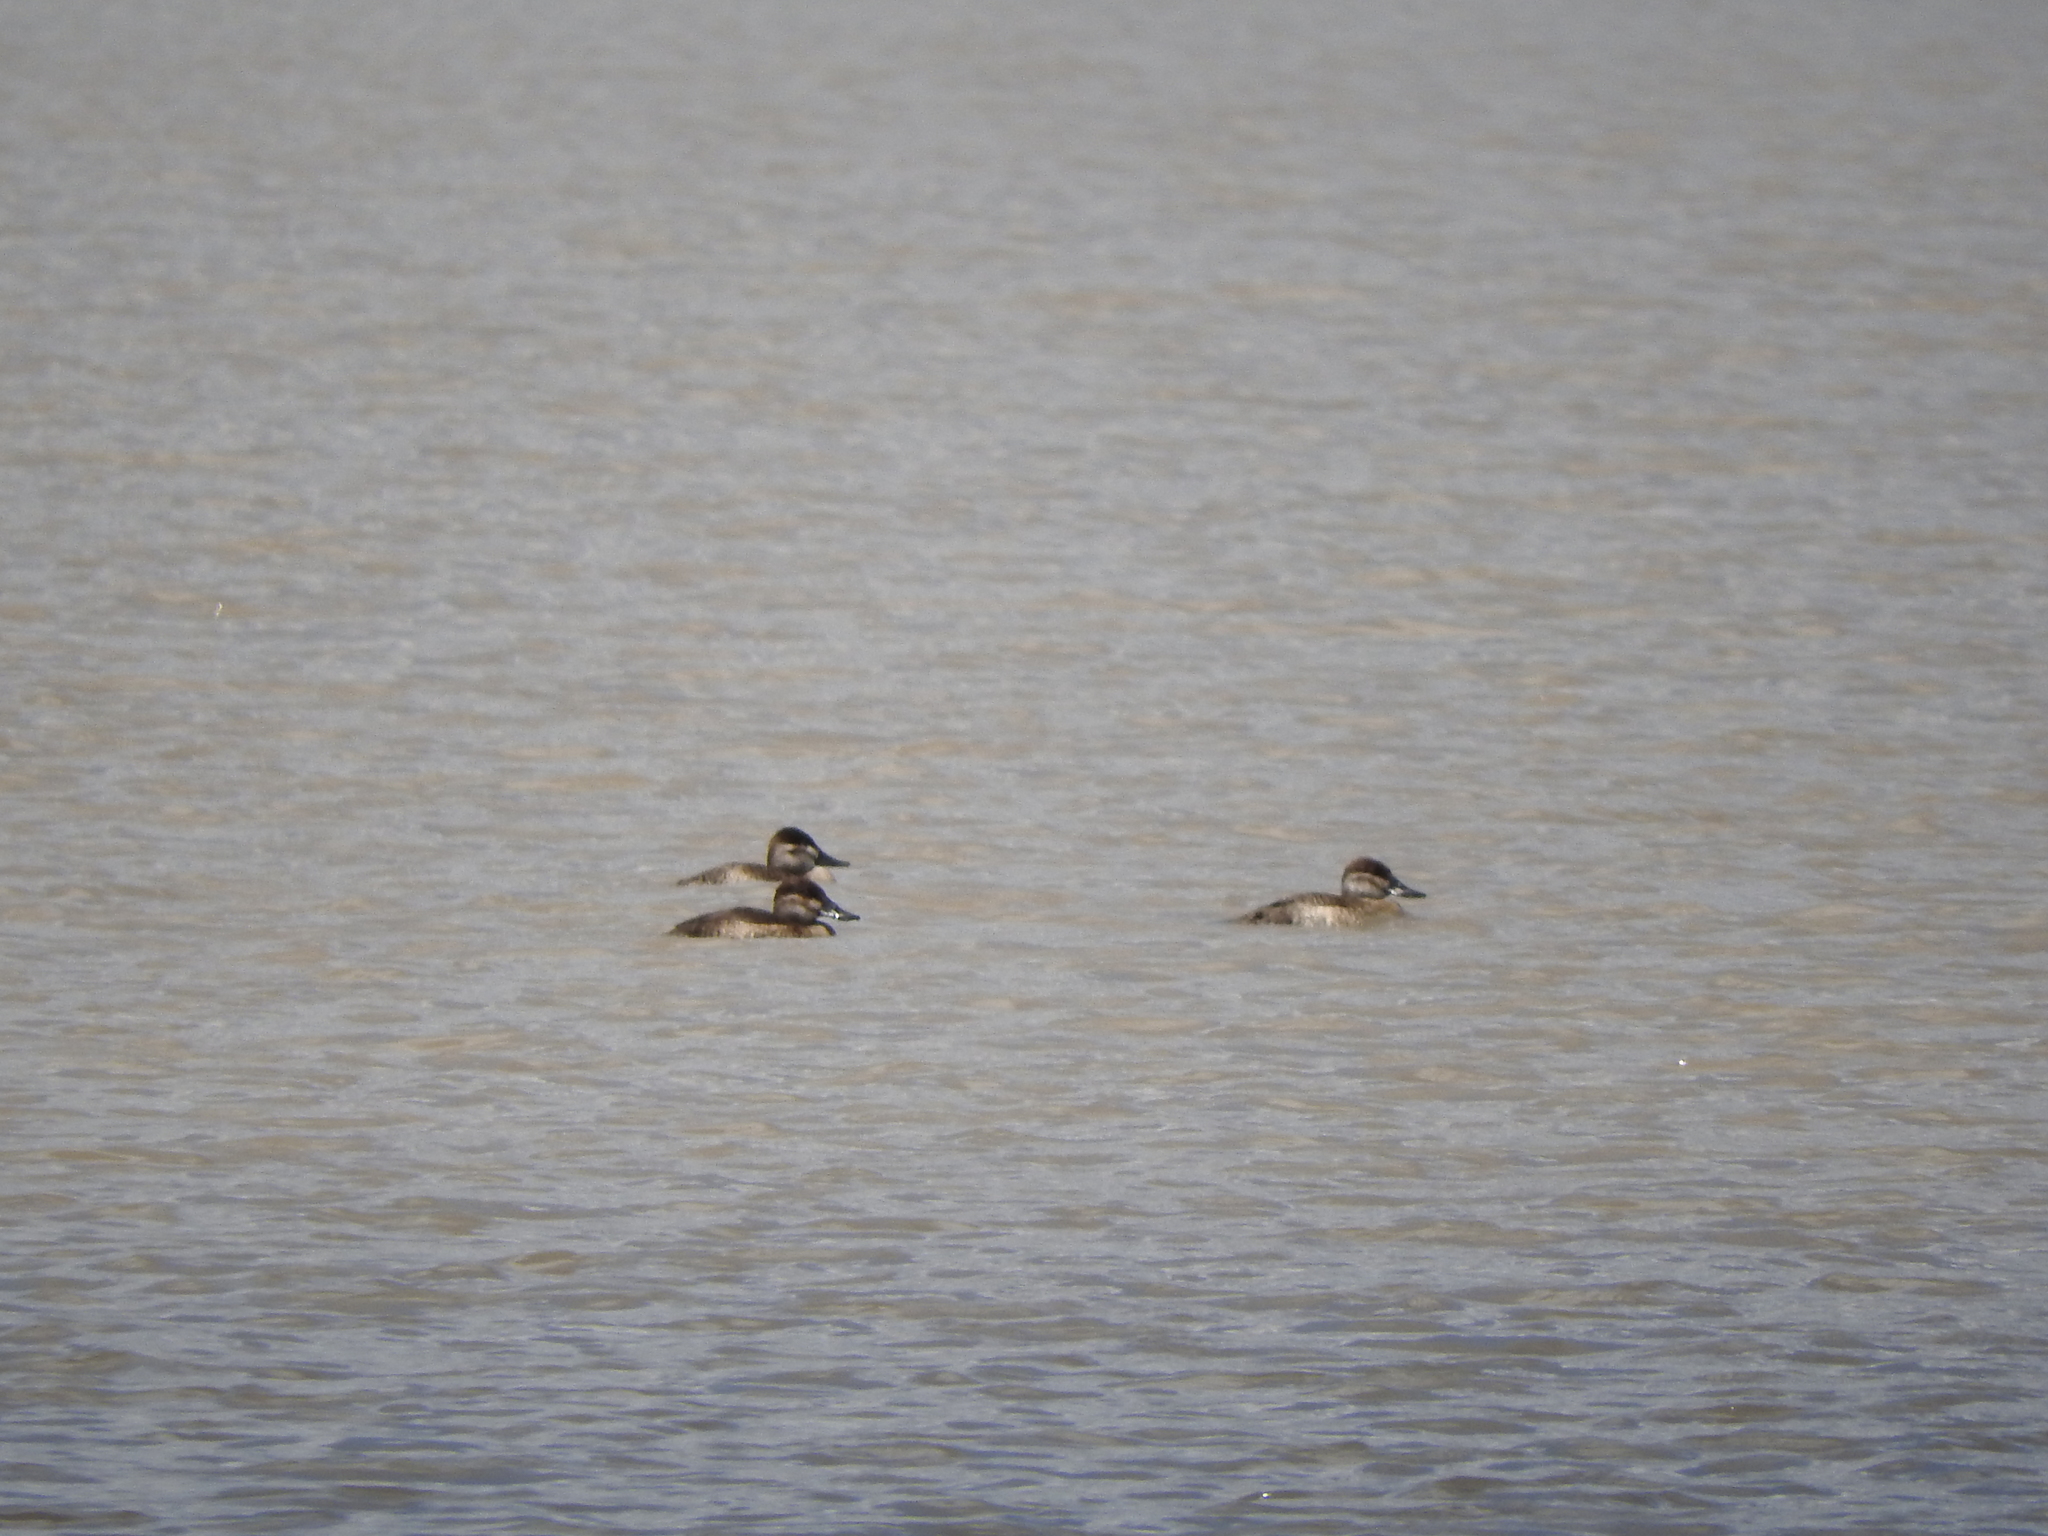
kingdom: Animalia
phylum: Chordata
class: Aves
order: Anseriformes
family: Anatidae
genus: Oxyura
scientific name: Oxyura jamaicensis
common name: Ruddy duck
